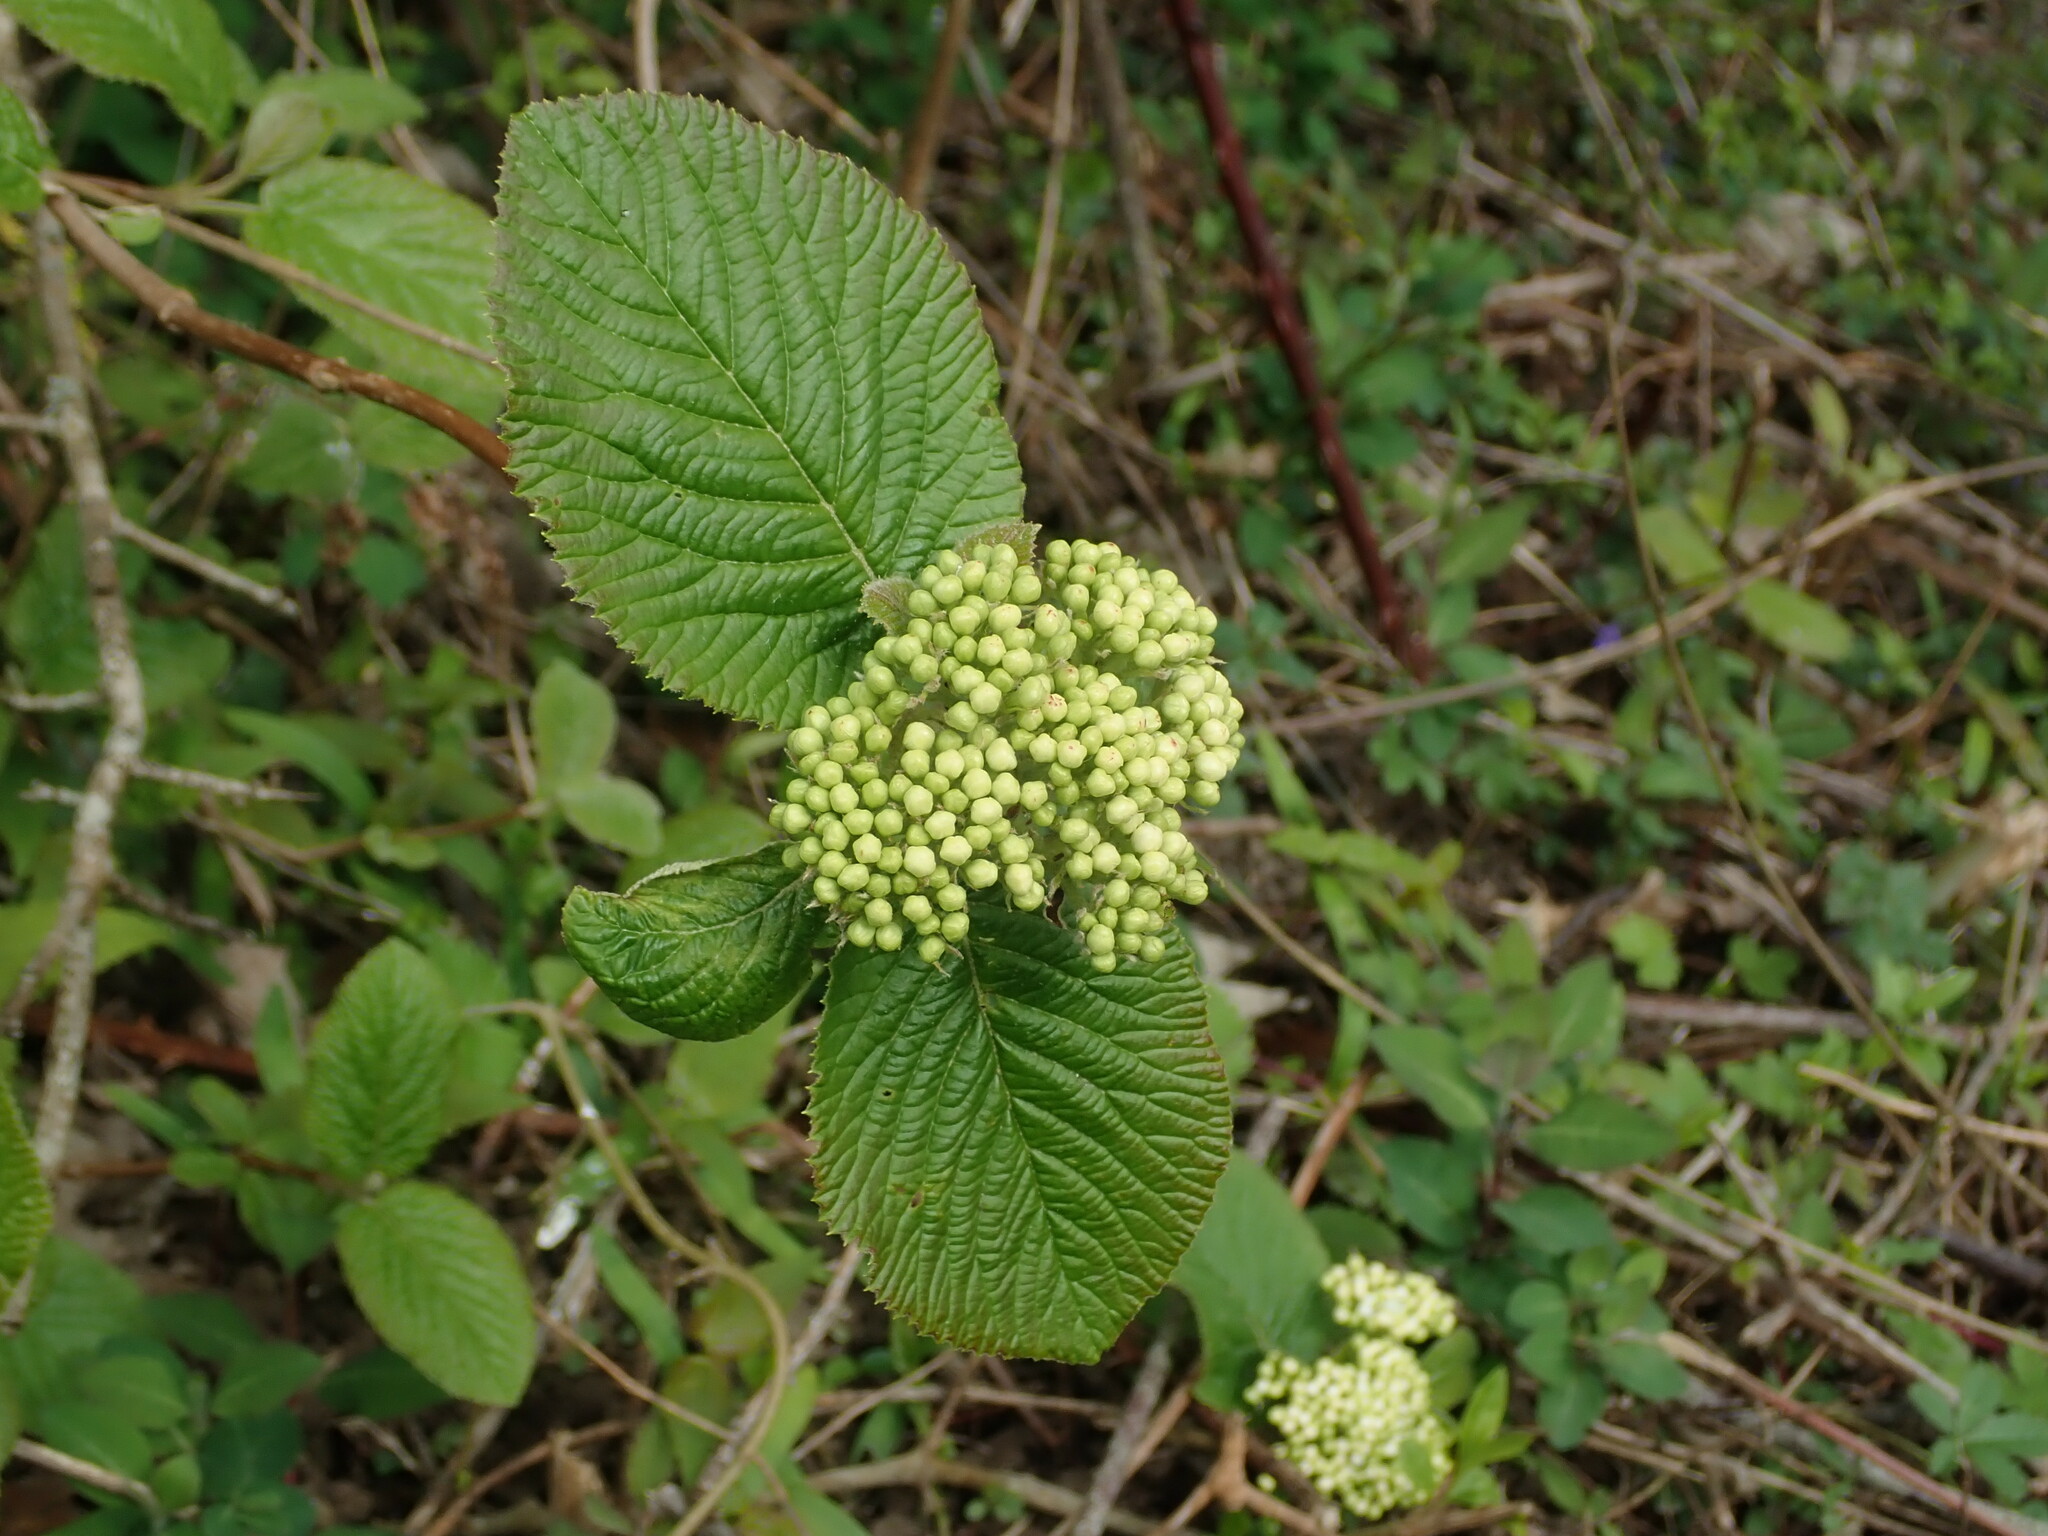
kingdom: Plantae
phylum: Tracheophyta
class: Magnoliopsida
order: Dipsacales
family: Viburnaceae
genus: Viburnum
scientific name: Viburnum lantana
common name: Wayfaring tree
